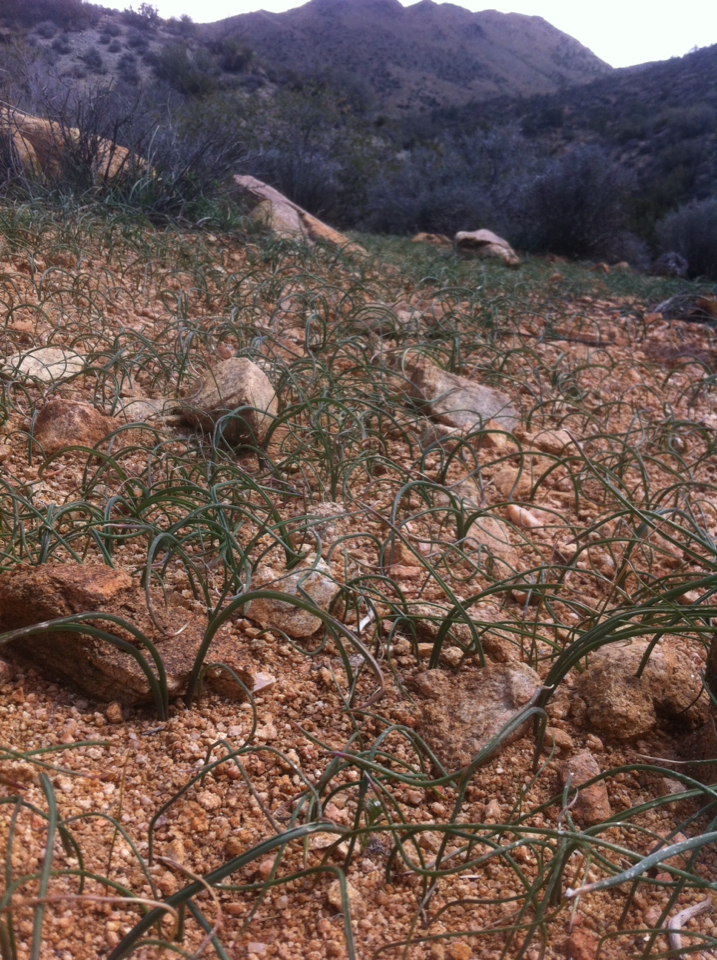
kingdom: Plantae
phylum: Tracheophyta
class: Liliopsida
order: Asparagales
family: Asparagaceae
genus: Dipterostemon
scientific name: Dipterostemon capitatus
